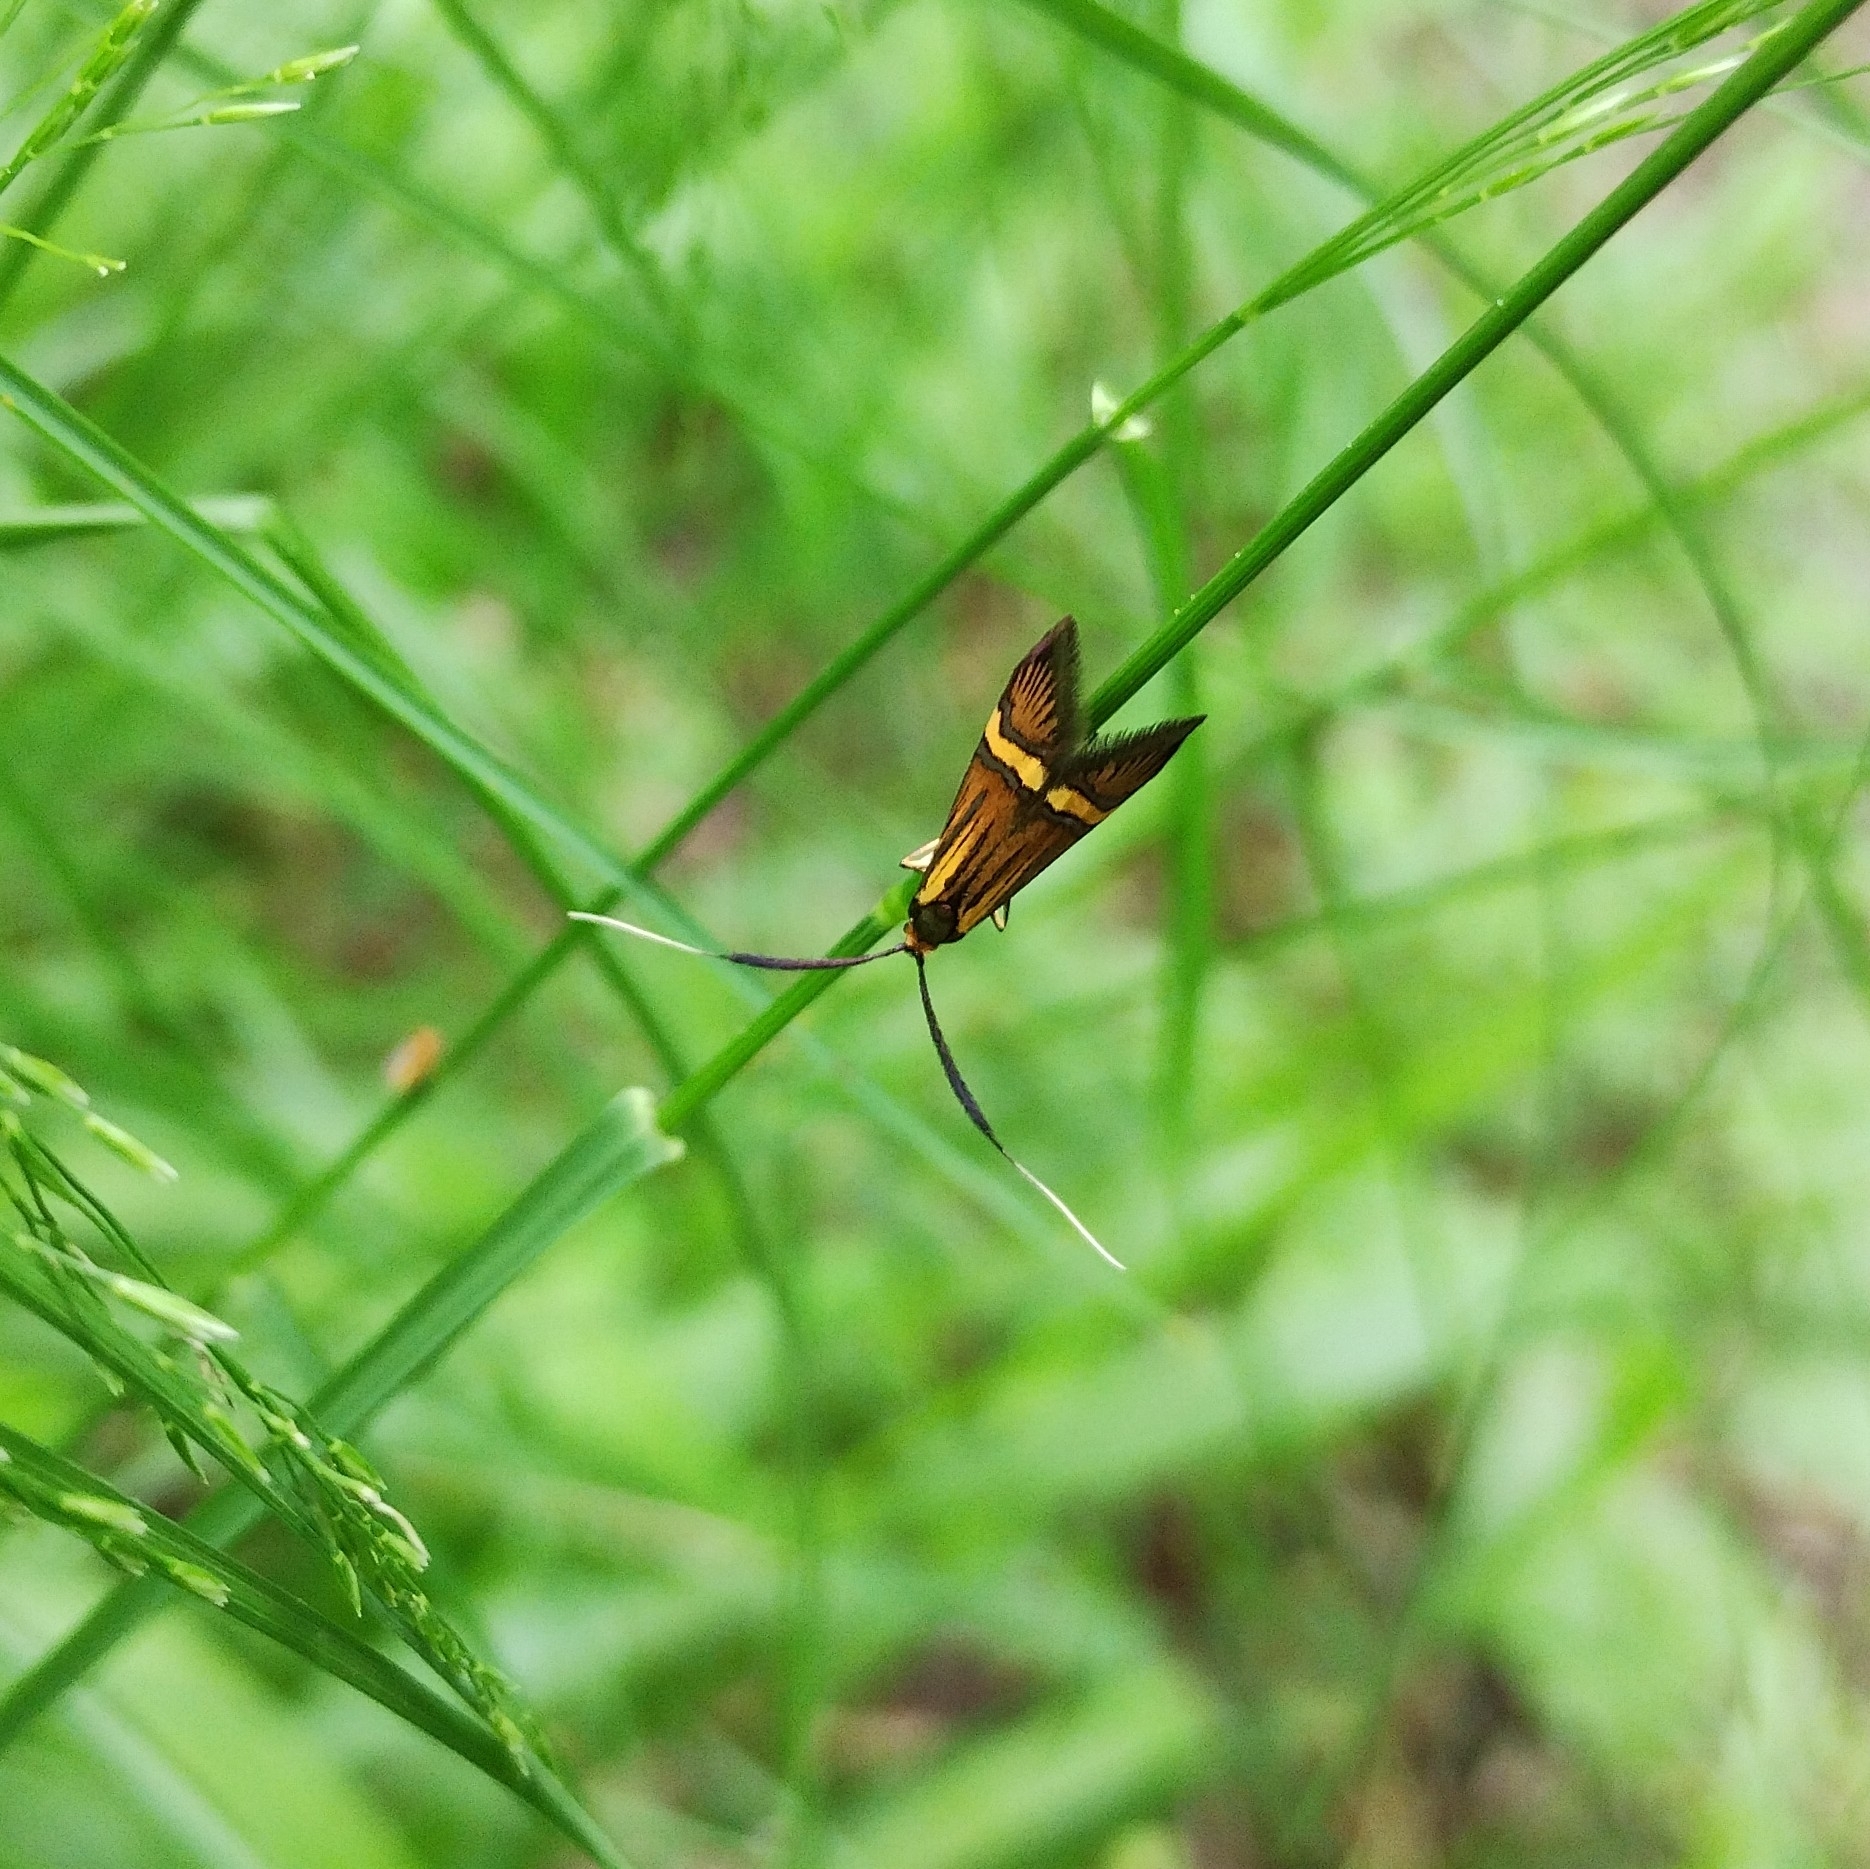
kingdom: Animalia
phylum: Arthropoda
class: Insecta
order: Lepidoptera
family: Adelidae
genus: Nemophora
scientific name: Nemophora degeerella
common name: Yellow-barred long-horn
